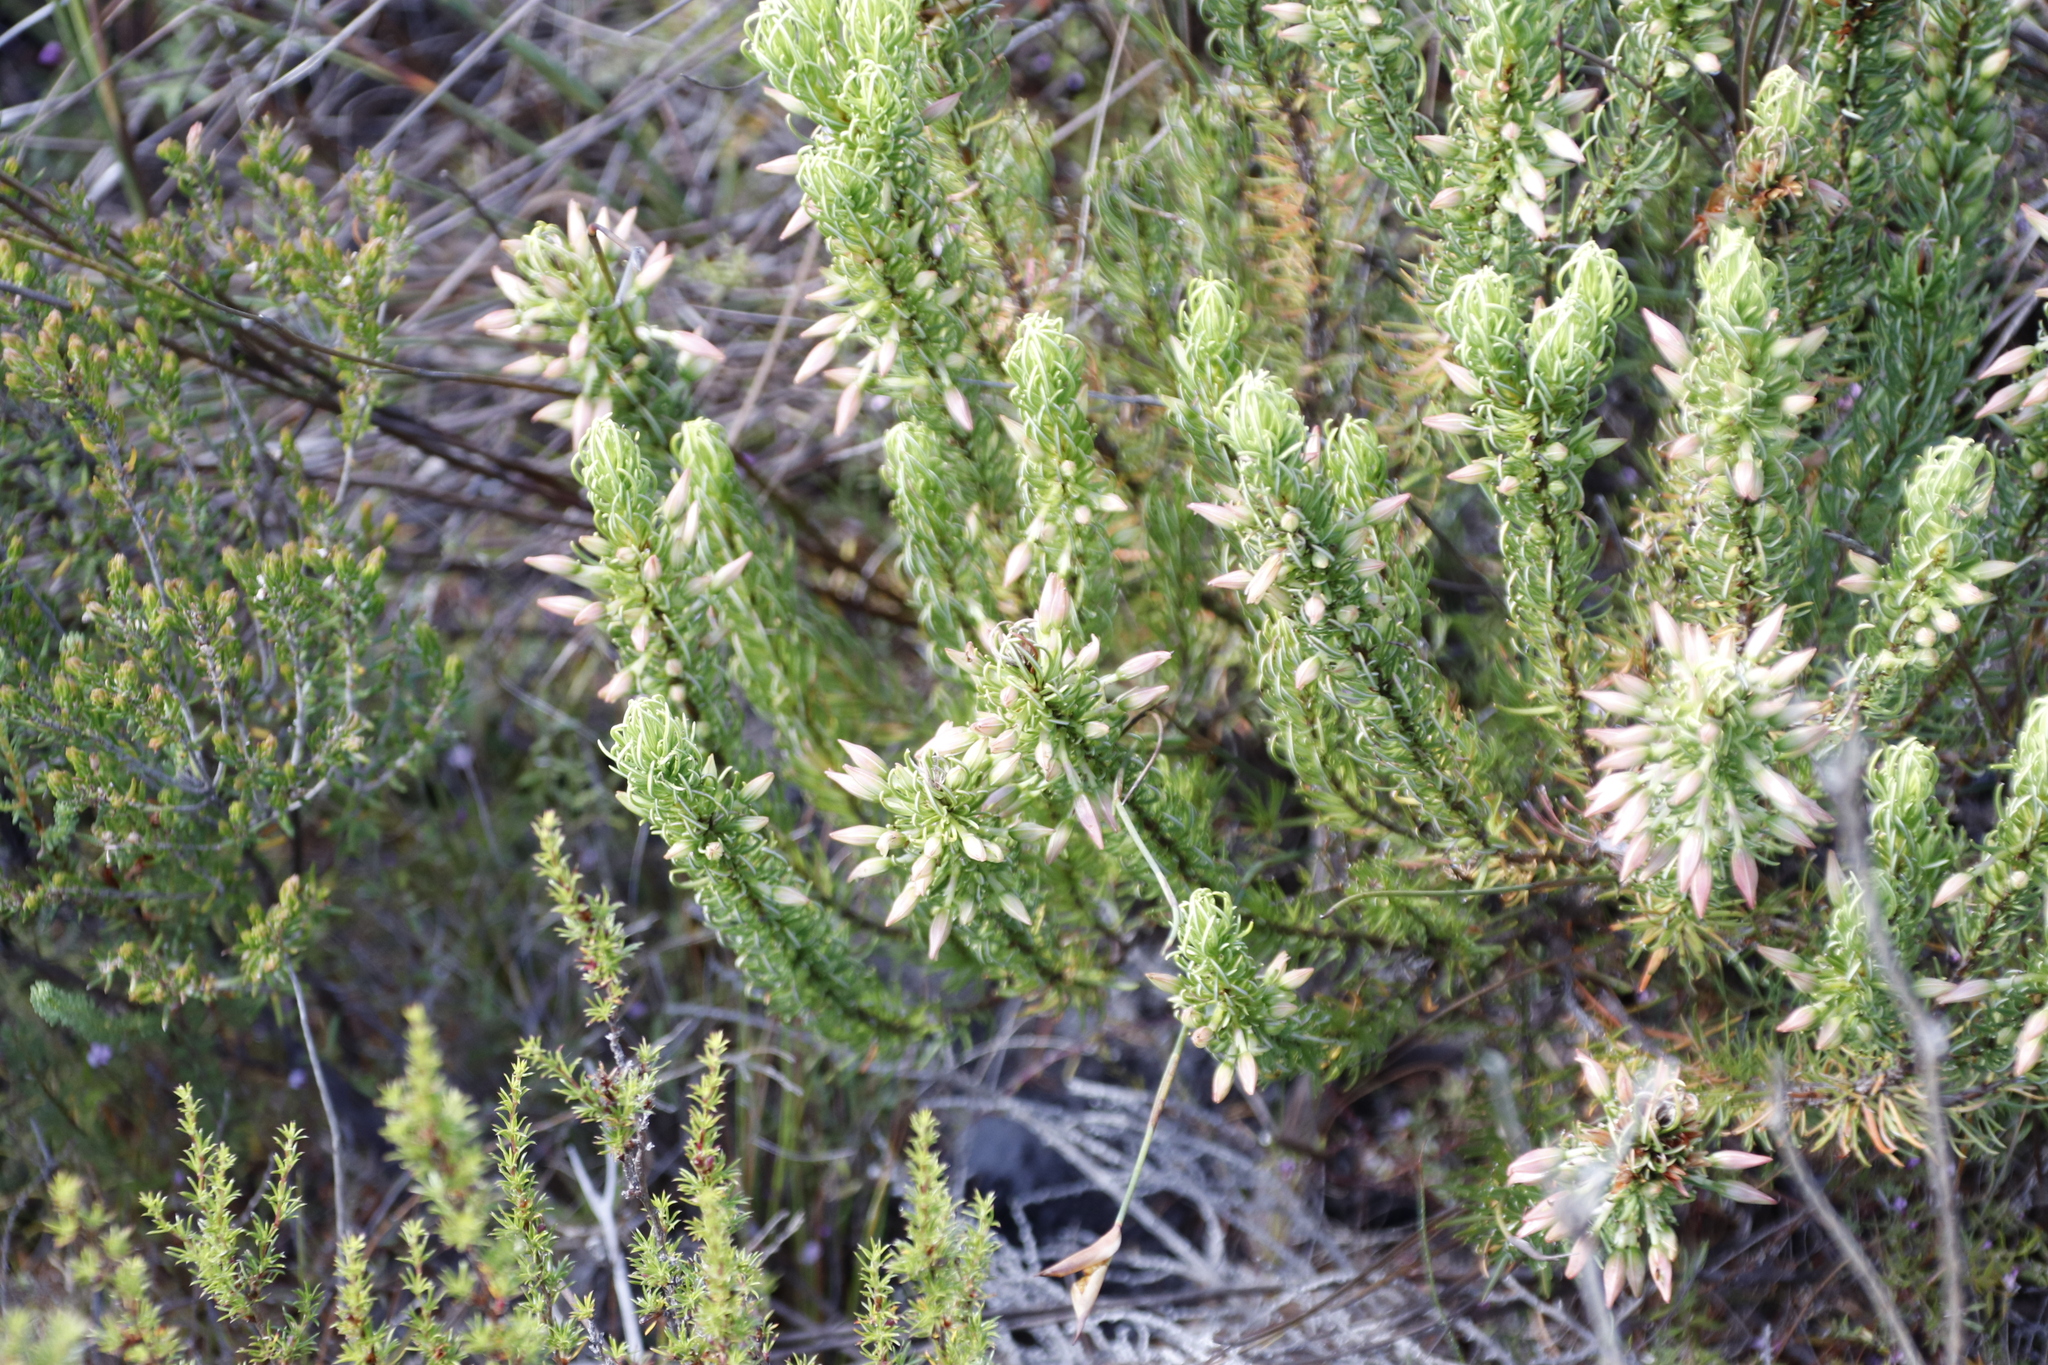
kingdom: Plantae
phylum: Tracheophyta
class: Magnoliopsida
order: Ericales
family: Ericaceae
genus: Erica
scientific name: Erica plukenetii
